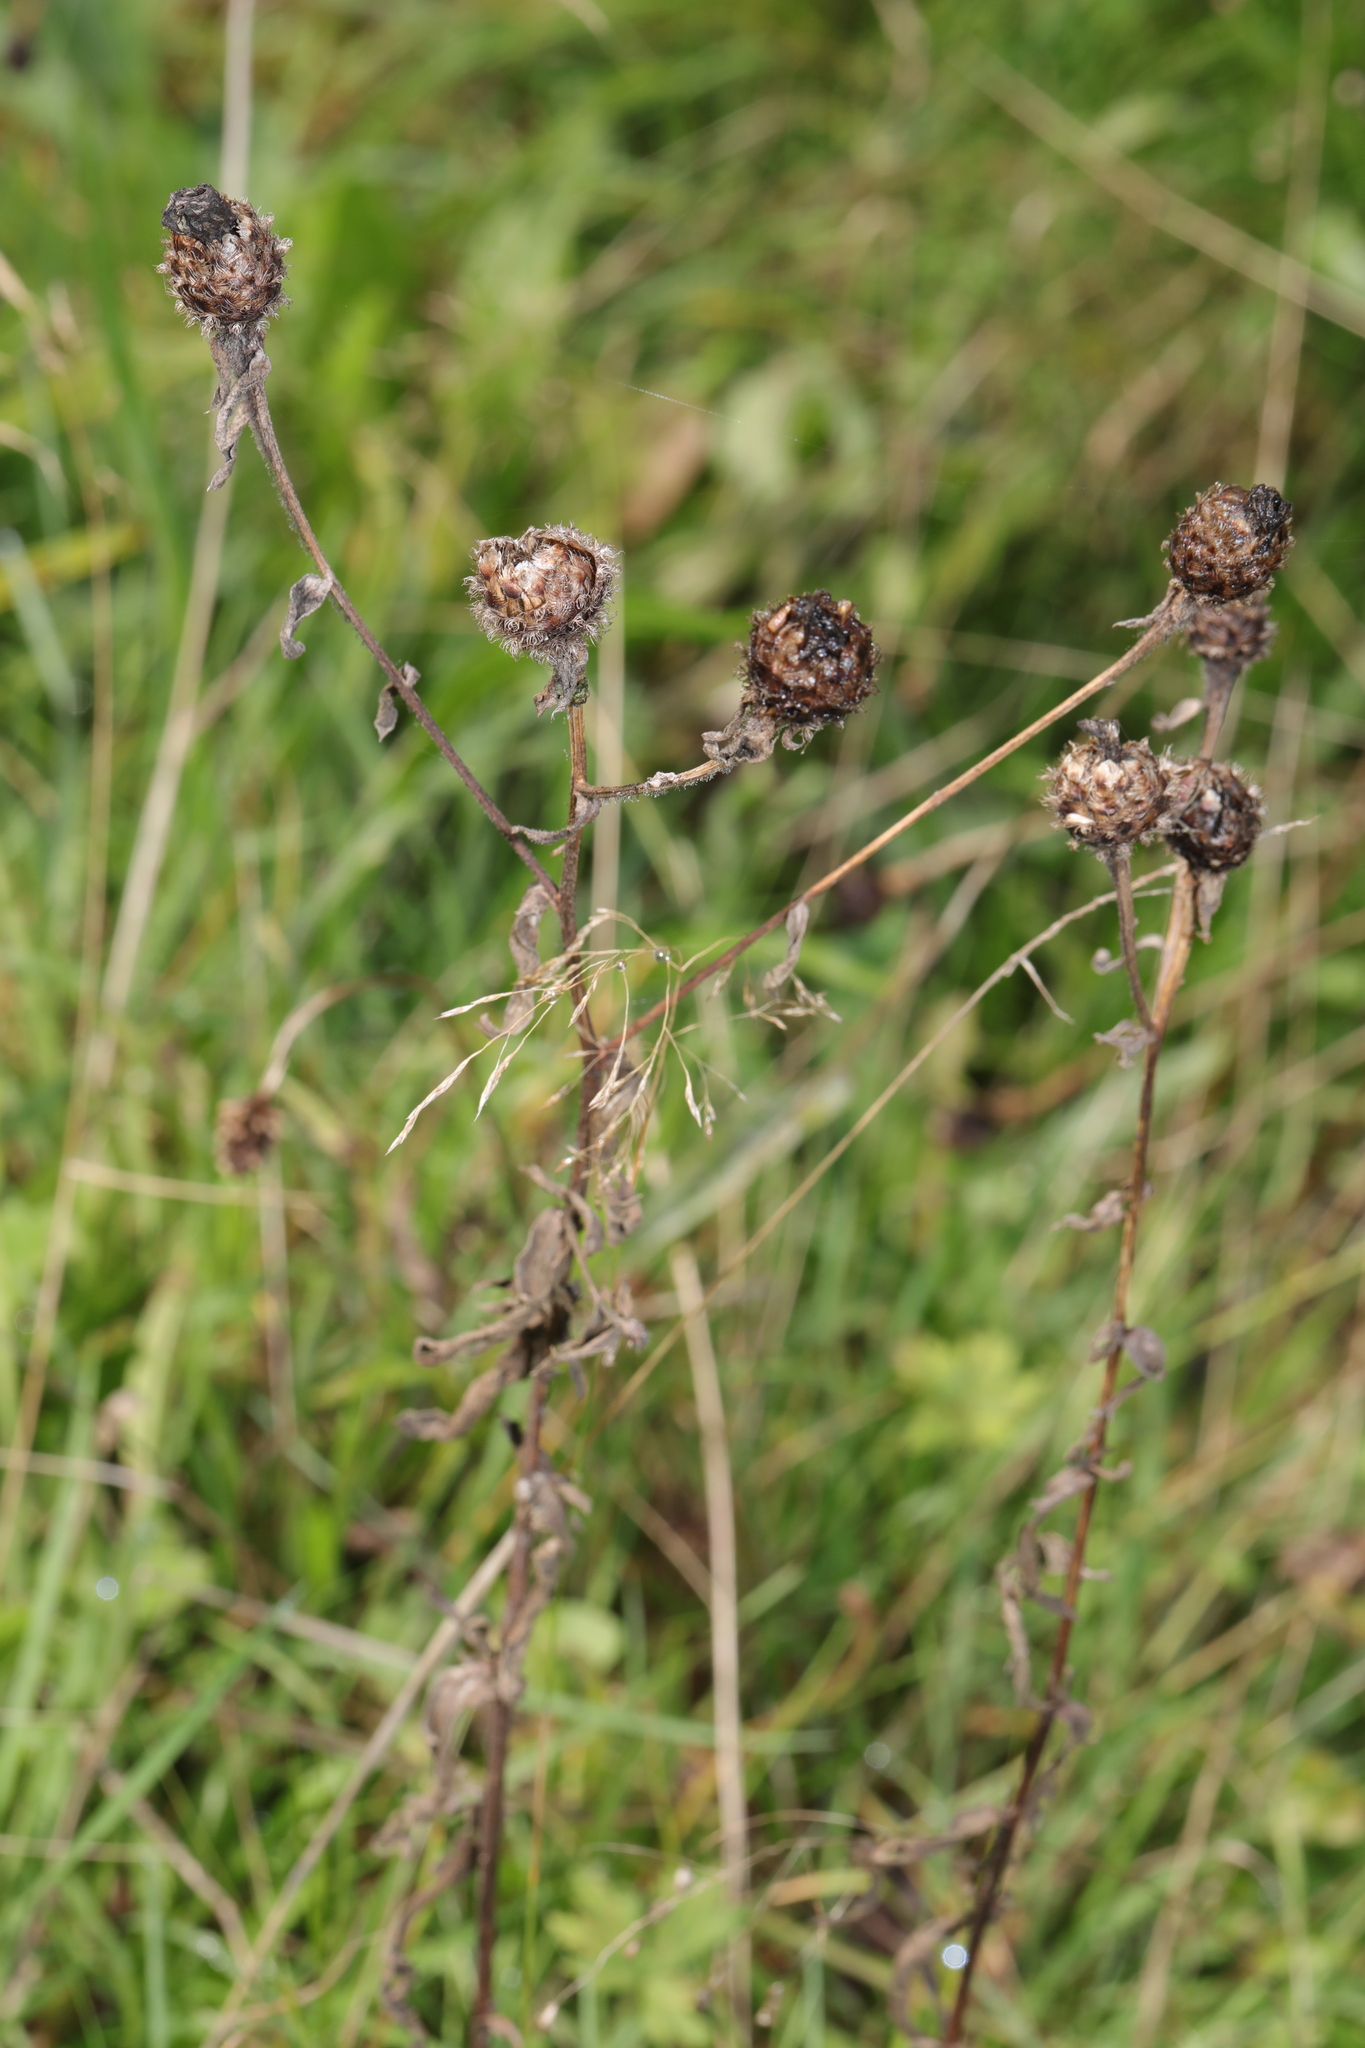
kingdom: Plantae
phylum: Tracheophyta
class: Magnoliopsida
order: Asterales
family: Asteraceae
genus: Centaurea
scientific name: Centaurea nigra
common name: Lesser knapweed
